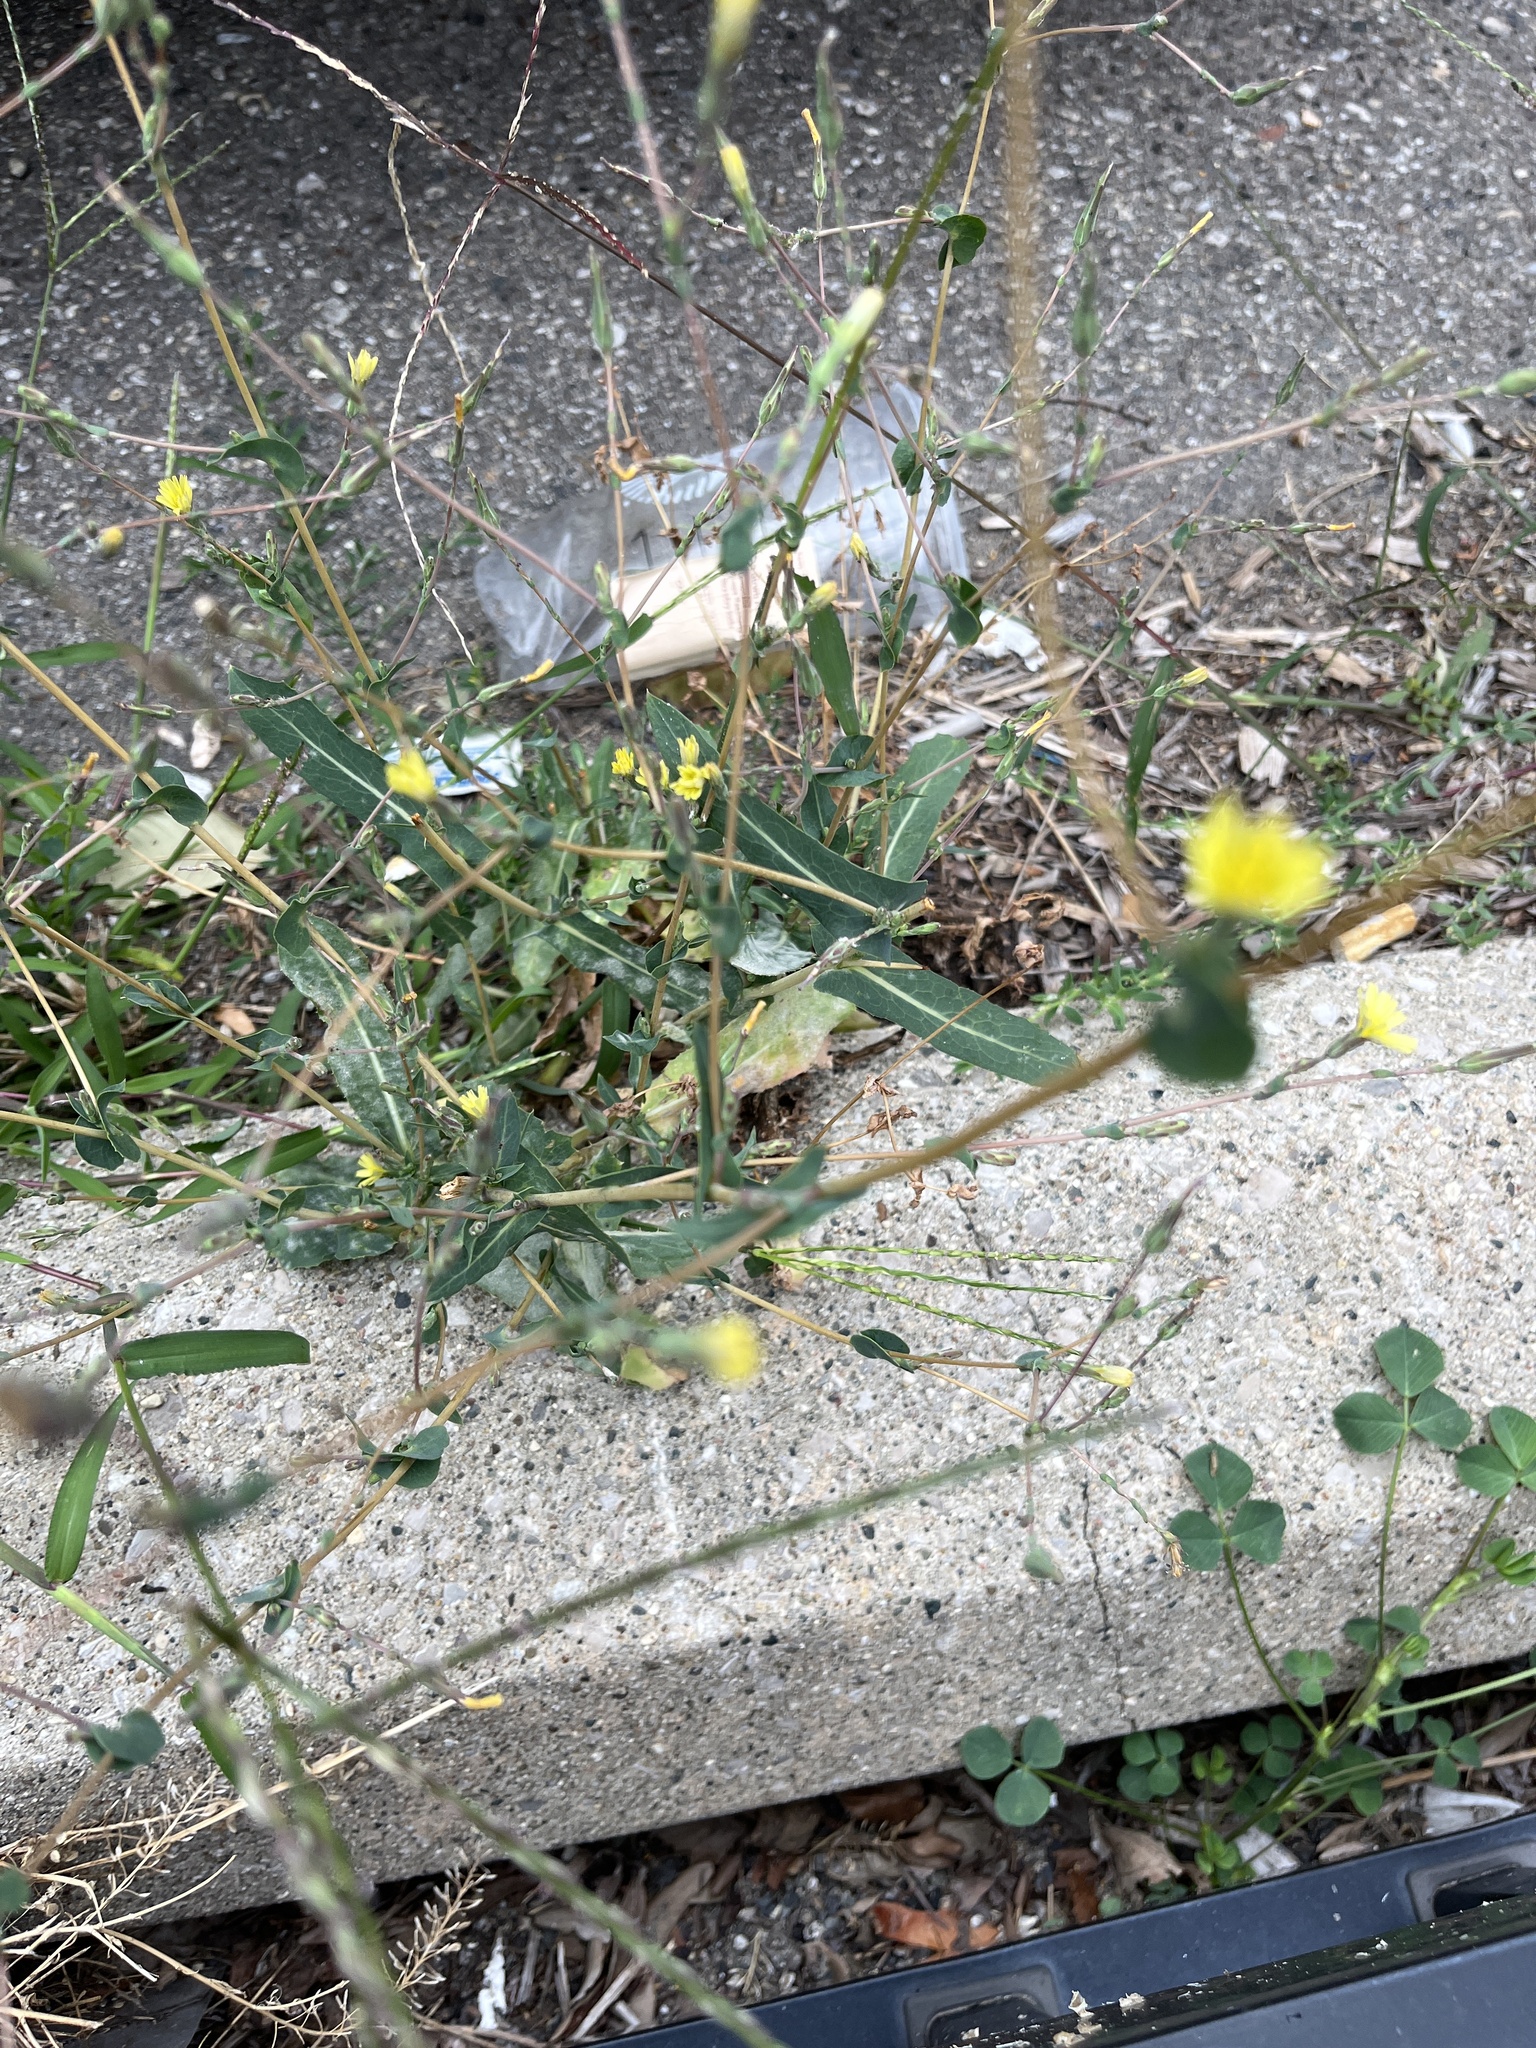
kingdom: Plantae
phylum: Tracheophyta
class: Magnoliopsida
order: Asterales
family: Asteraceae
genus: Lactuca
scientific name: Lactuca serriola
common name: Prickly lettuce
